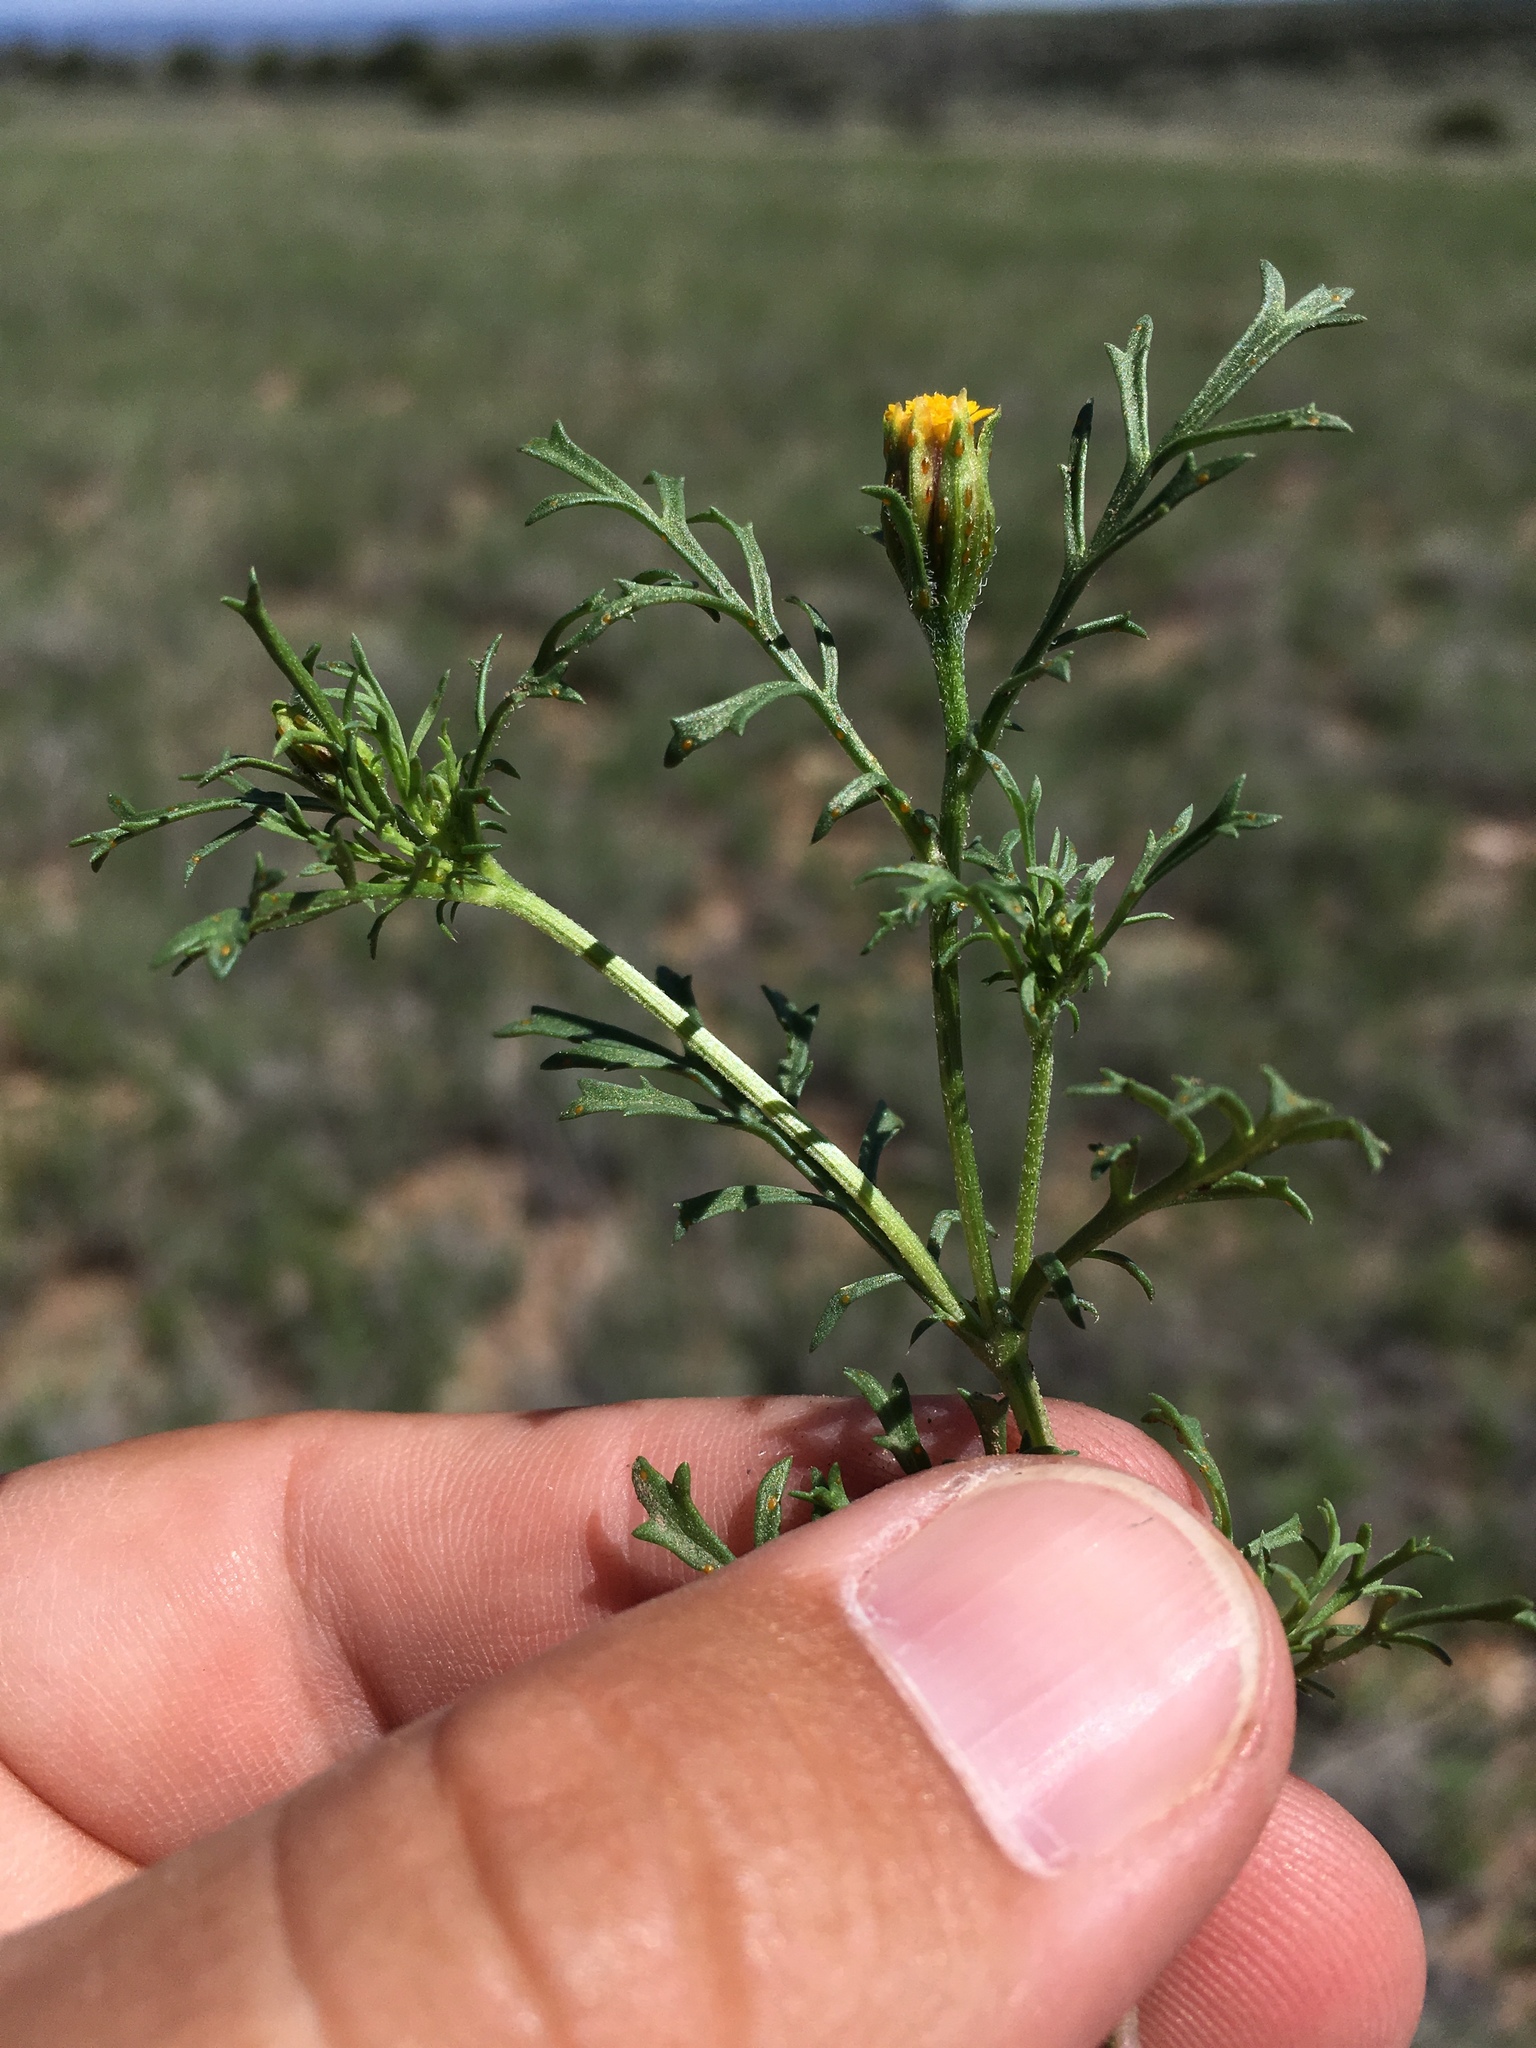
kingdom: Plantae
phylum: Tracheophyta
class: Magnoliopsida
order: Asterales
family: Asteraceae
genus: Dyssodia
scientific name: Dyssodia papposa
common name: Dogweed
